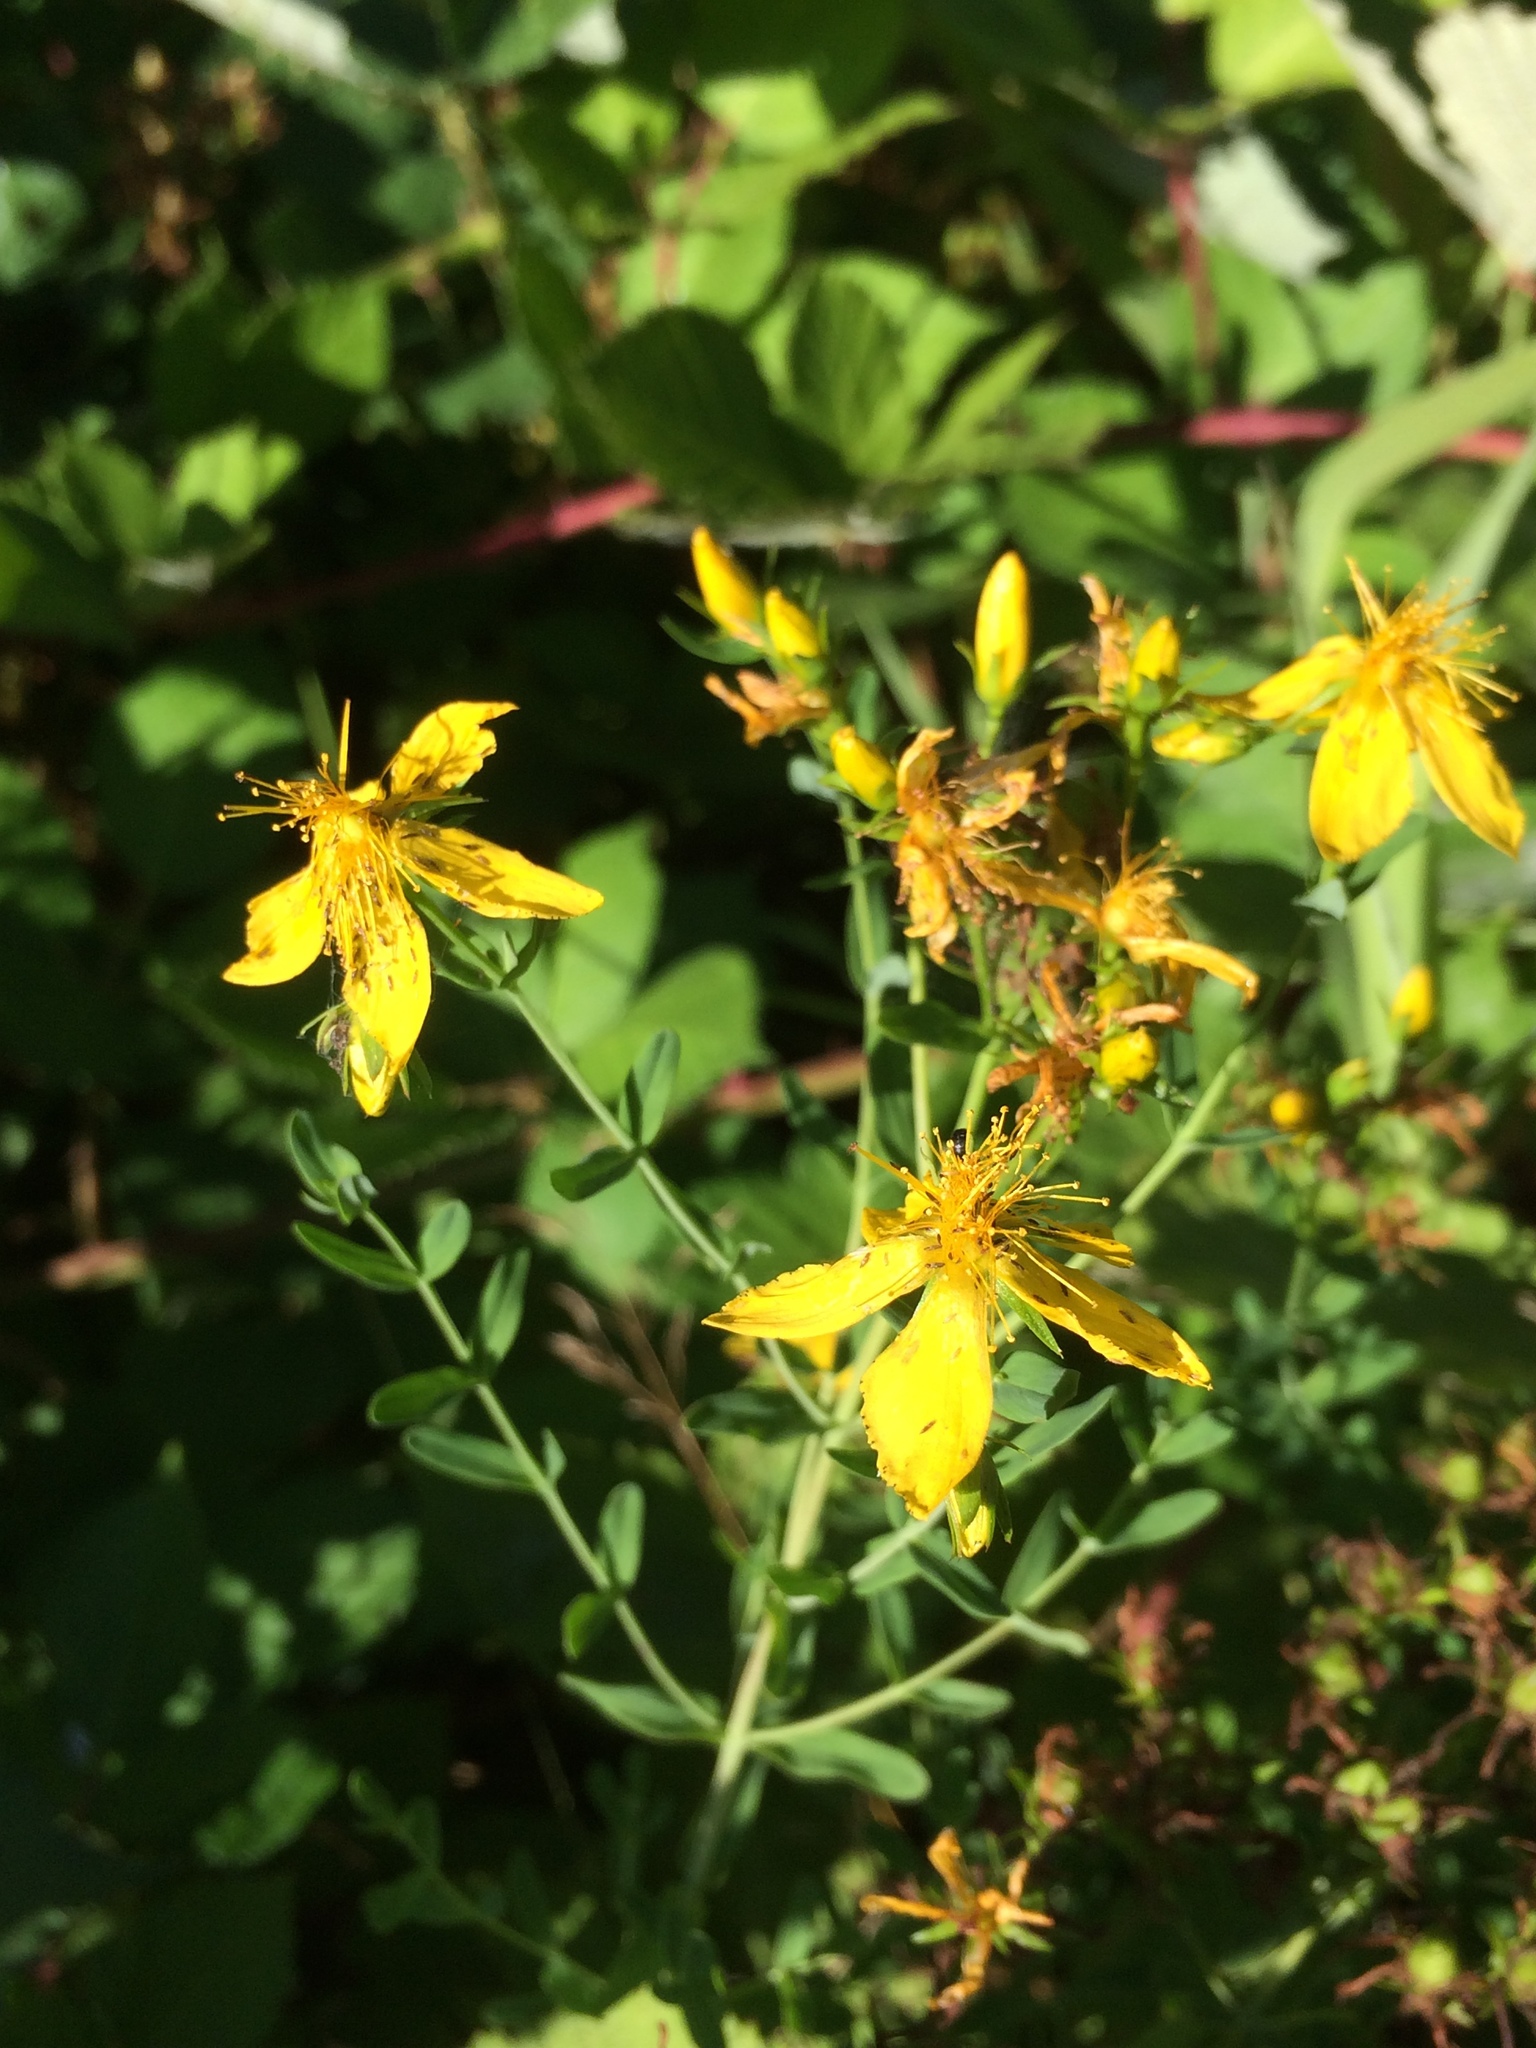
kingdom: Plantae
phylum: Tracheophyta
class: Magnoliopsida
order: Malpighiales
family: Hypericaceae
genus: Hypericum
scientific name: Hypericum perforatum
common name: Common st. johnswort
